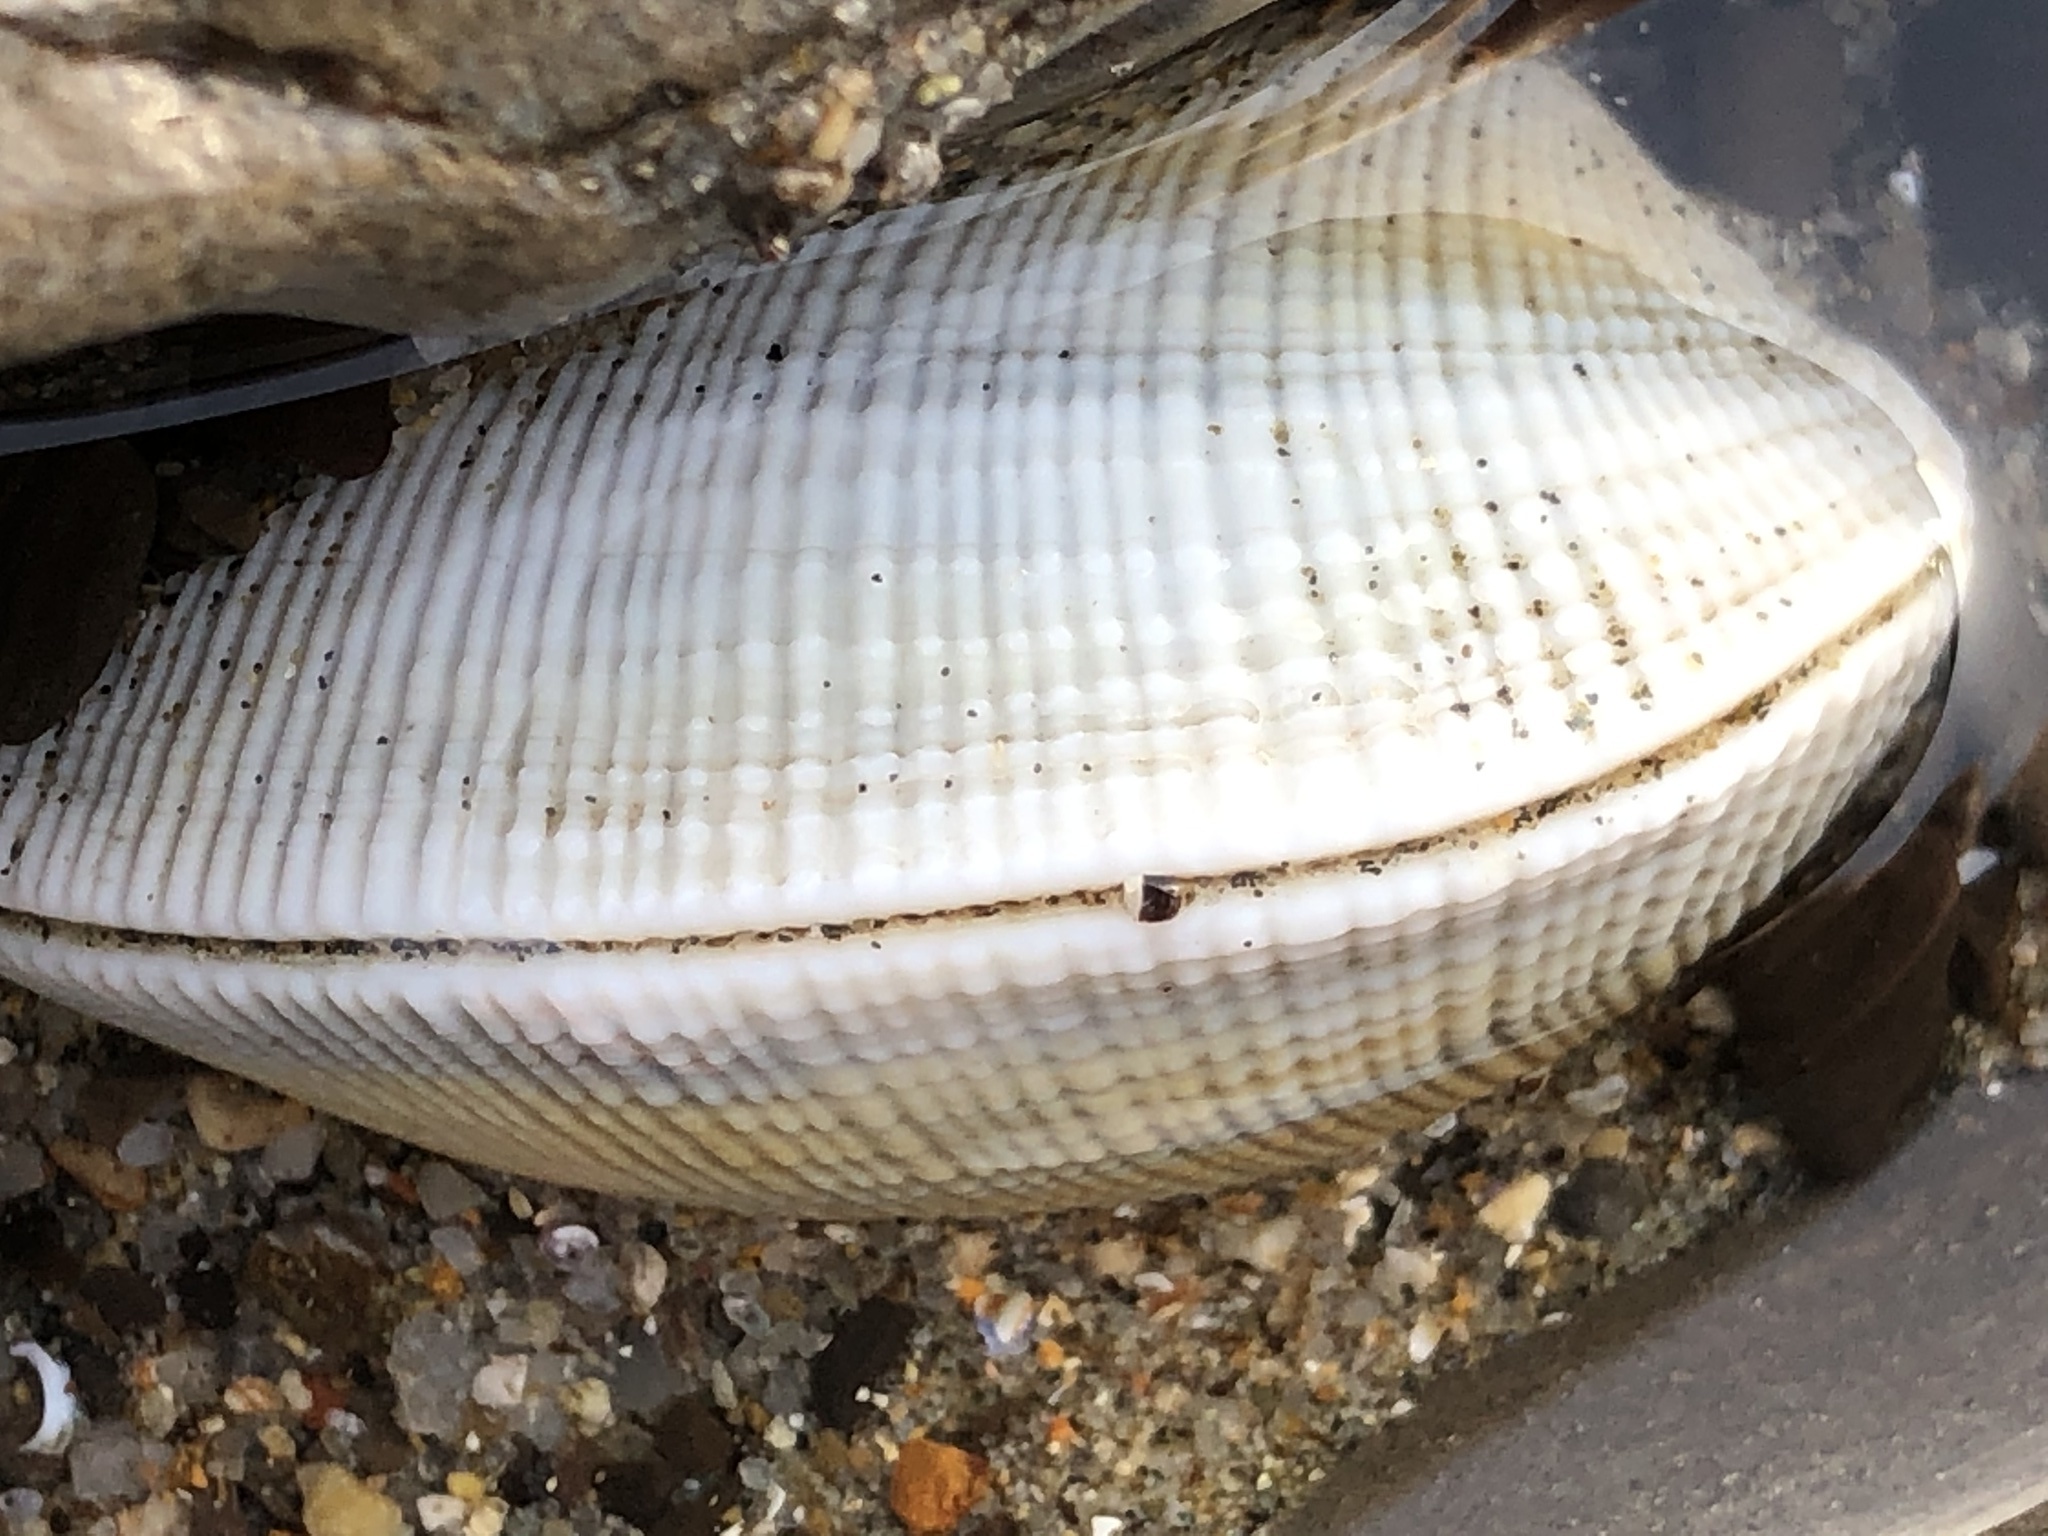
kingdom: Animalia
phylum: Mollusca
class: Bivalvia
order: Venerida
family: Veneridae
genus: Leukoma
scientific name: Leukoma staminea
